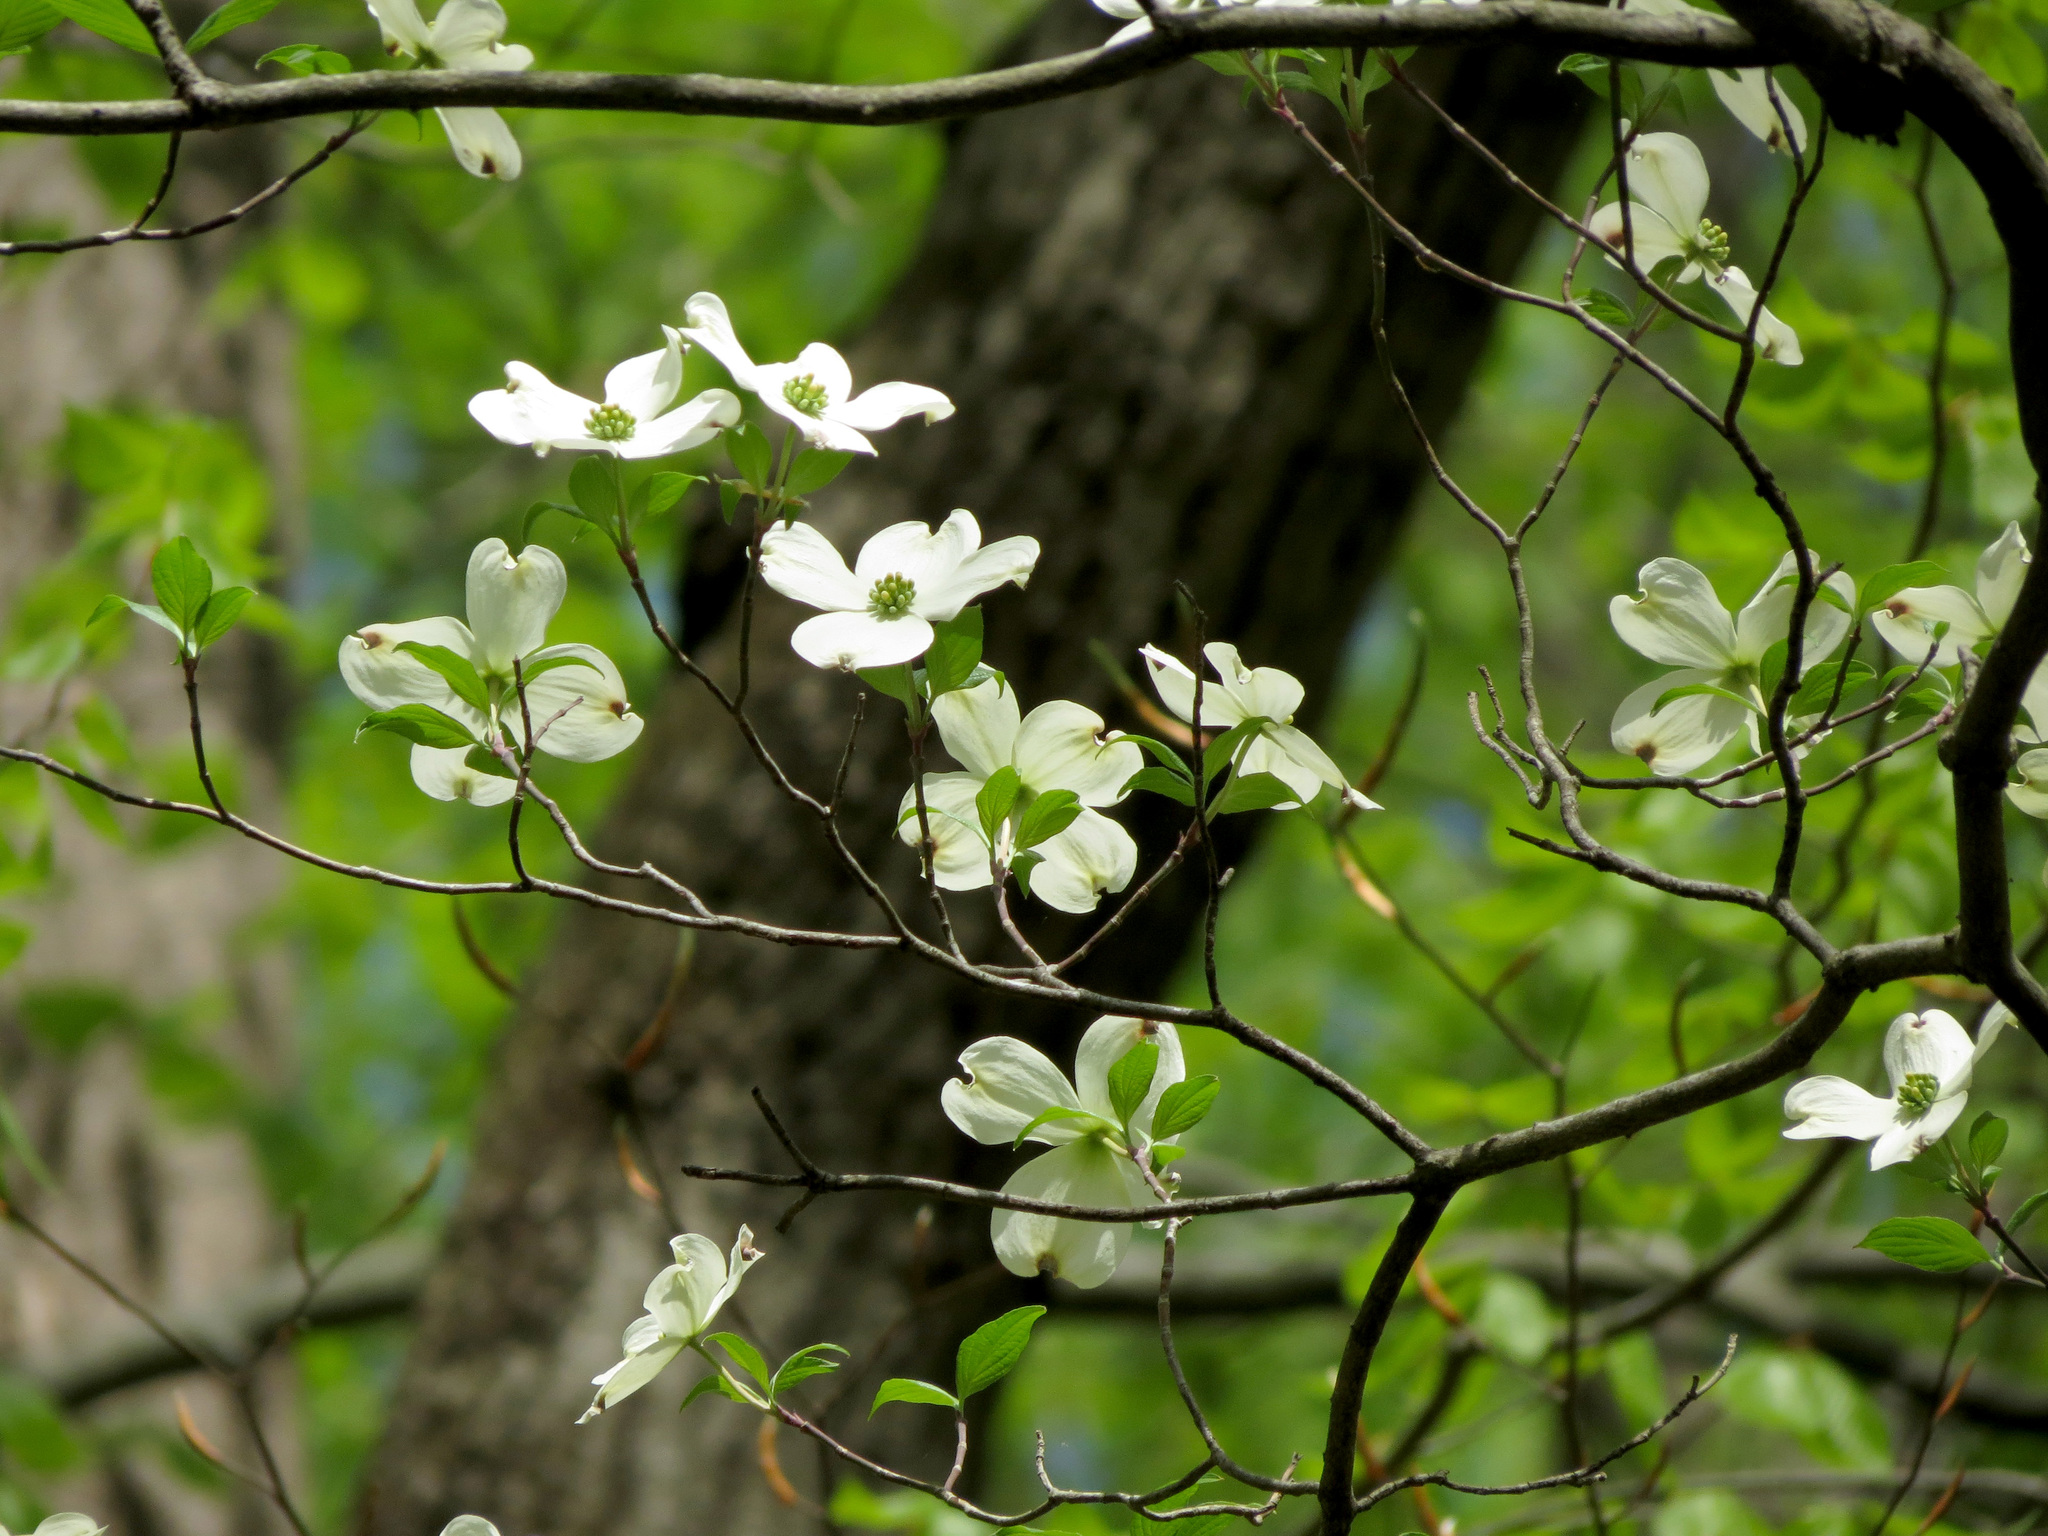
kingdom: Plantae
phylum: Tracheophyta
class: Magnoliopsida
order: Cornales
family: Cornaceae
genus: Cornus
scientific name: Cornus florida
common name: Flowering dogwood
